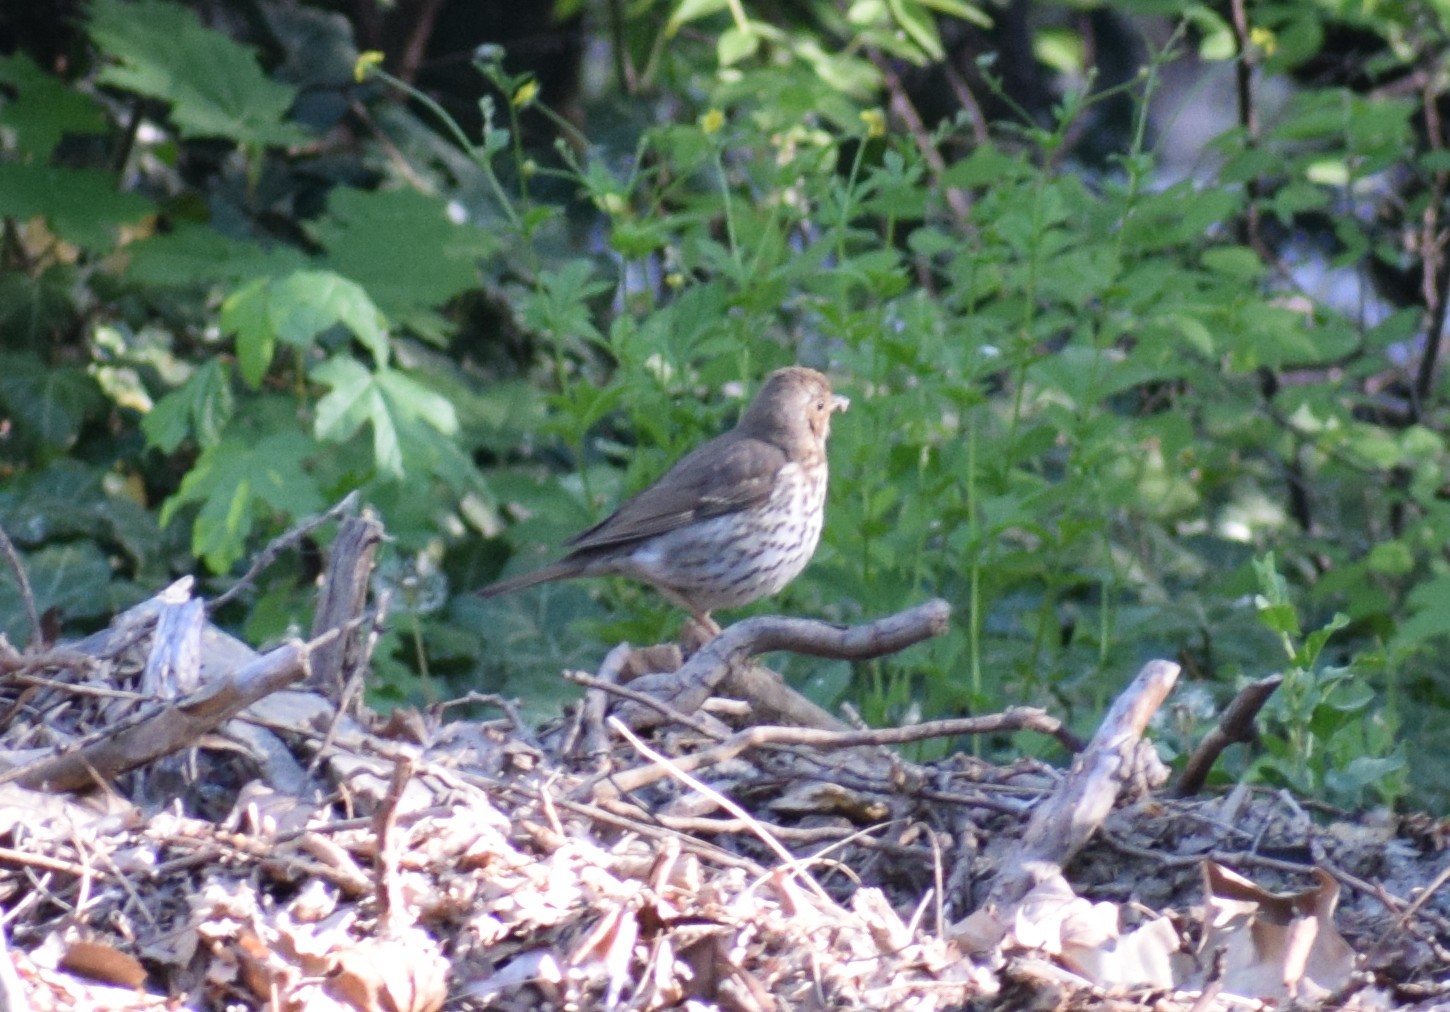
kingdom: Animalia
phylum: Chordata
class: Aves
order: Passeriformes
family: Turdidae
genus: Turdus
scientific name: Turdus philomelos
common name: Song thrush
